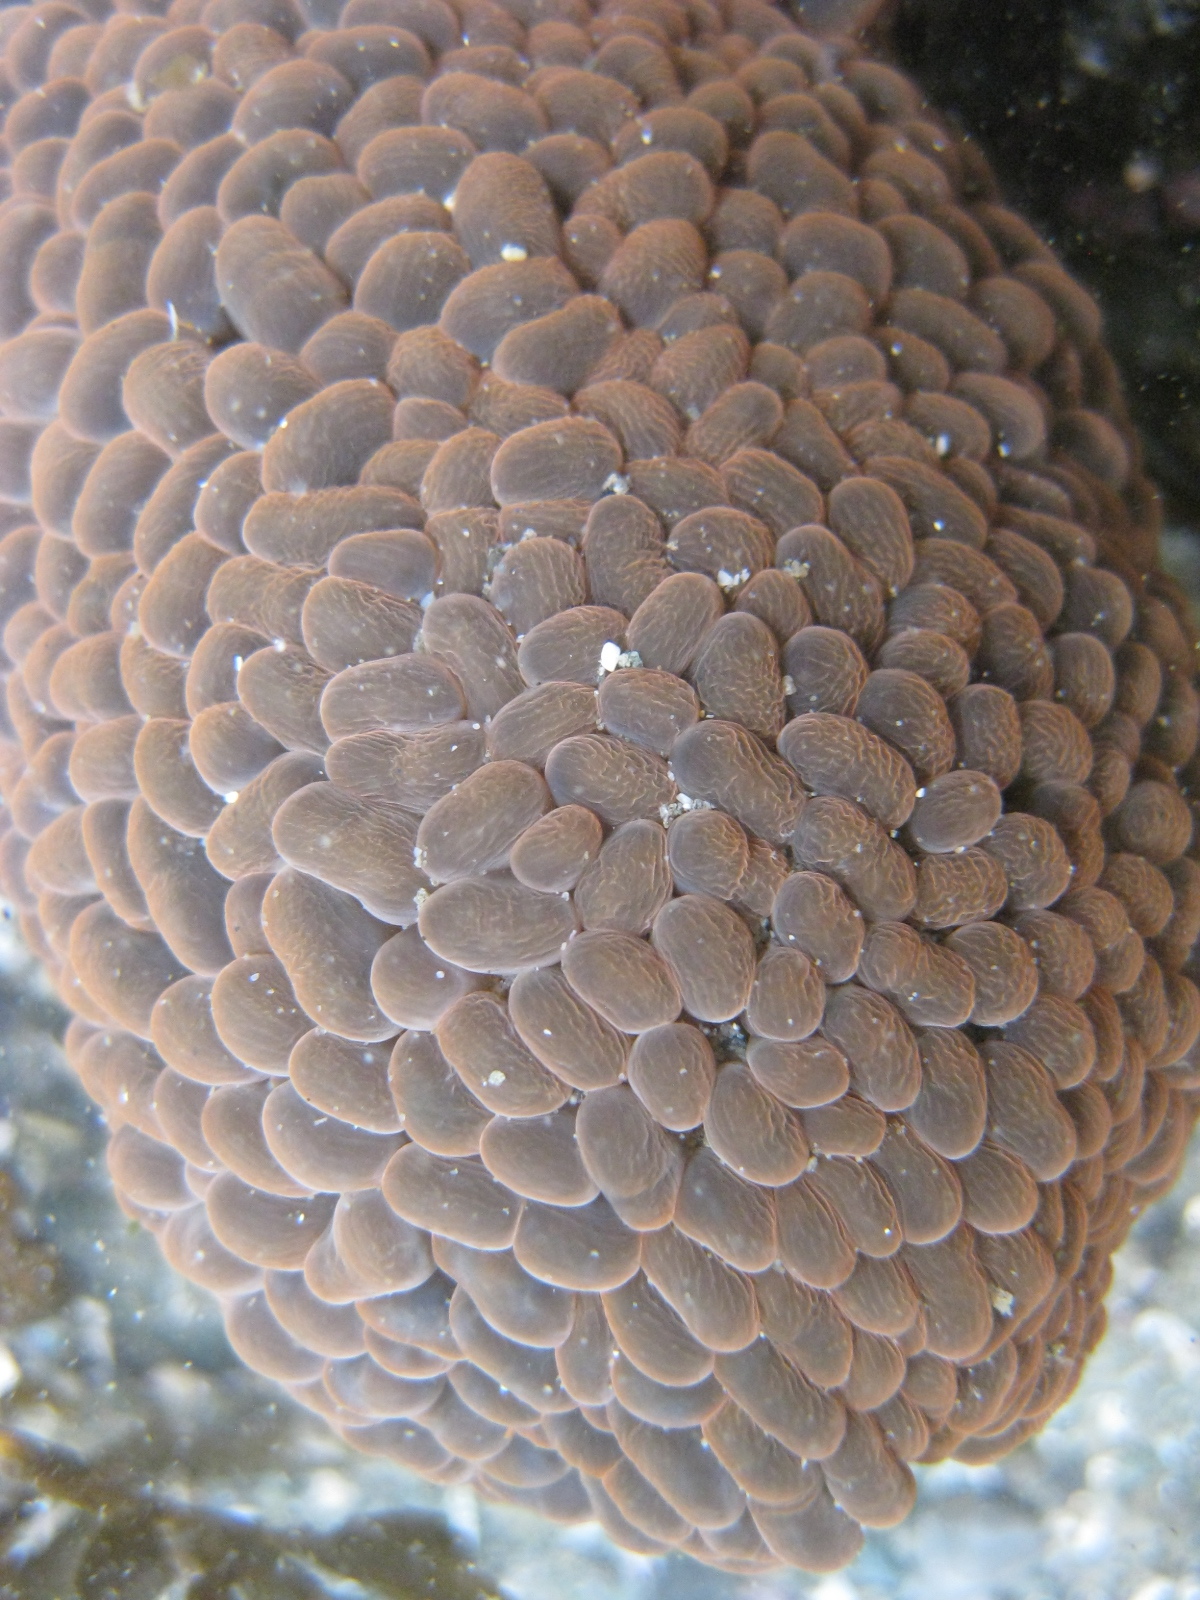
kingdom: Animalia
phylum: Cnidaria
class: Anthozoa
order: Actiniaria
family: Actiniidae
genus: Phlyctenactis
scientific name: Phlyctenactis tuberculosa
